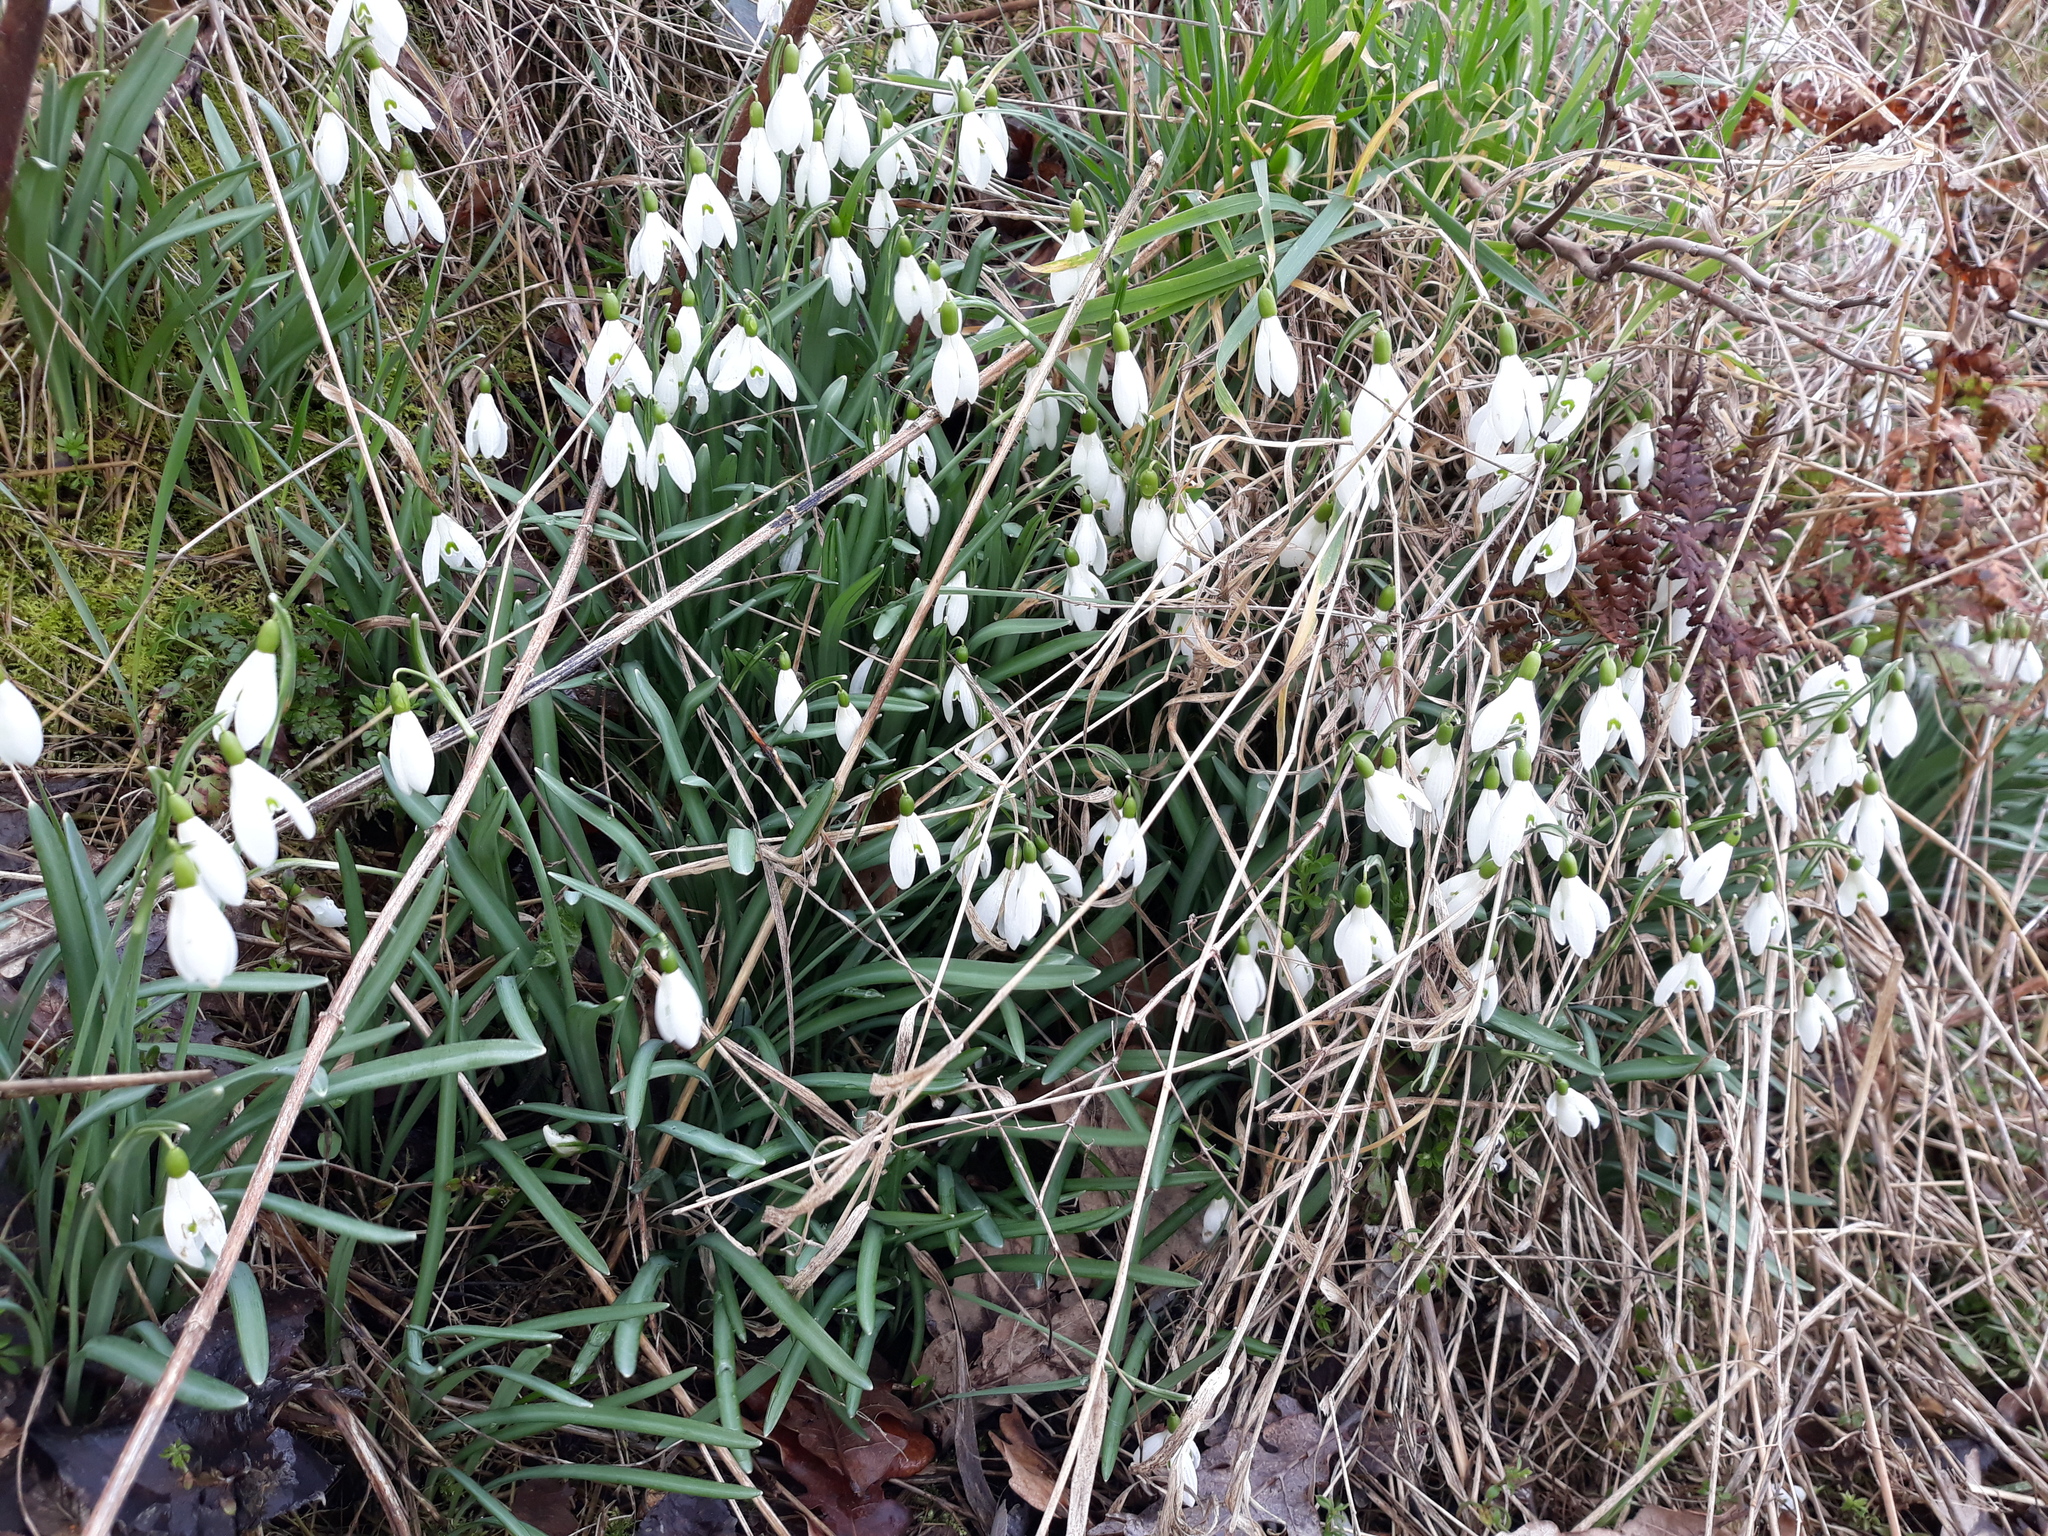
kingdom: Plantae
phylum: Tracheophyta
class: Liliopsida
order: Asparagales
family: Amaryllidaceae
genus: Galanthus
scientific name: Galanthus nivalis
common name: Snowdrop
